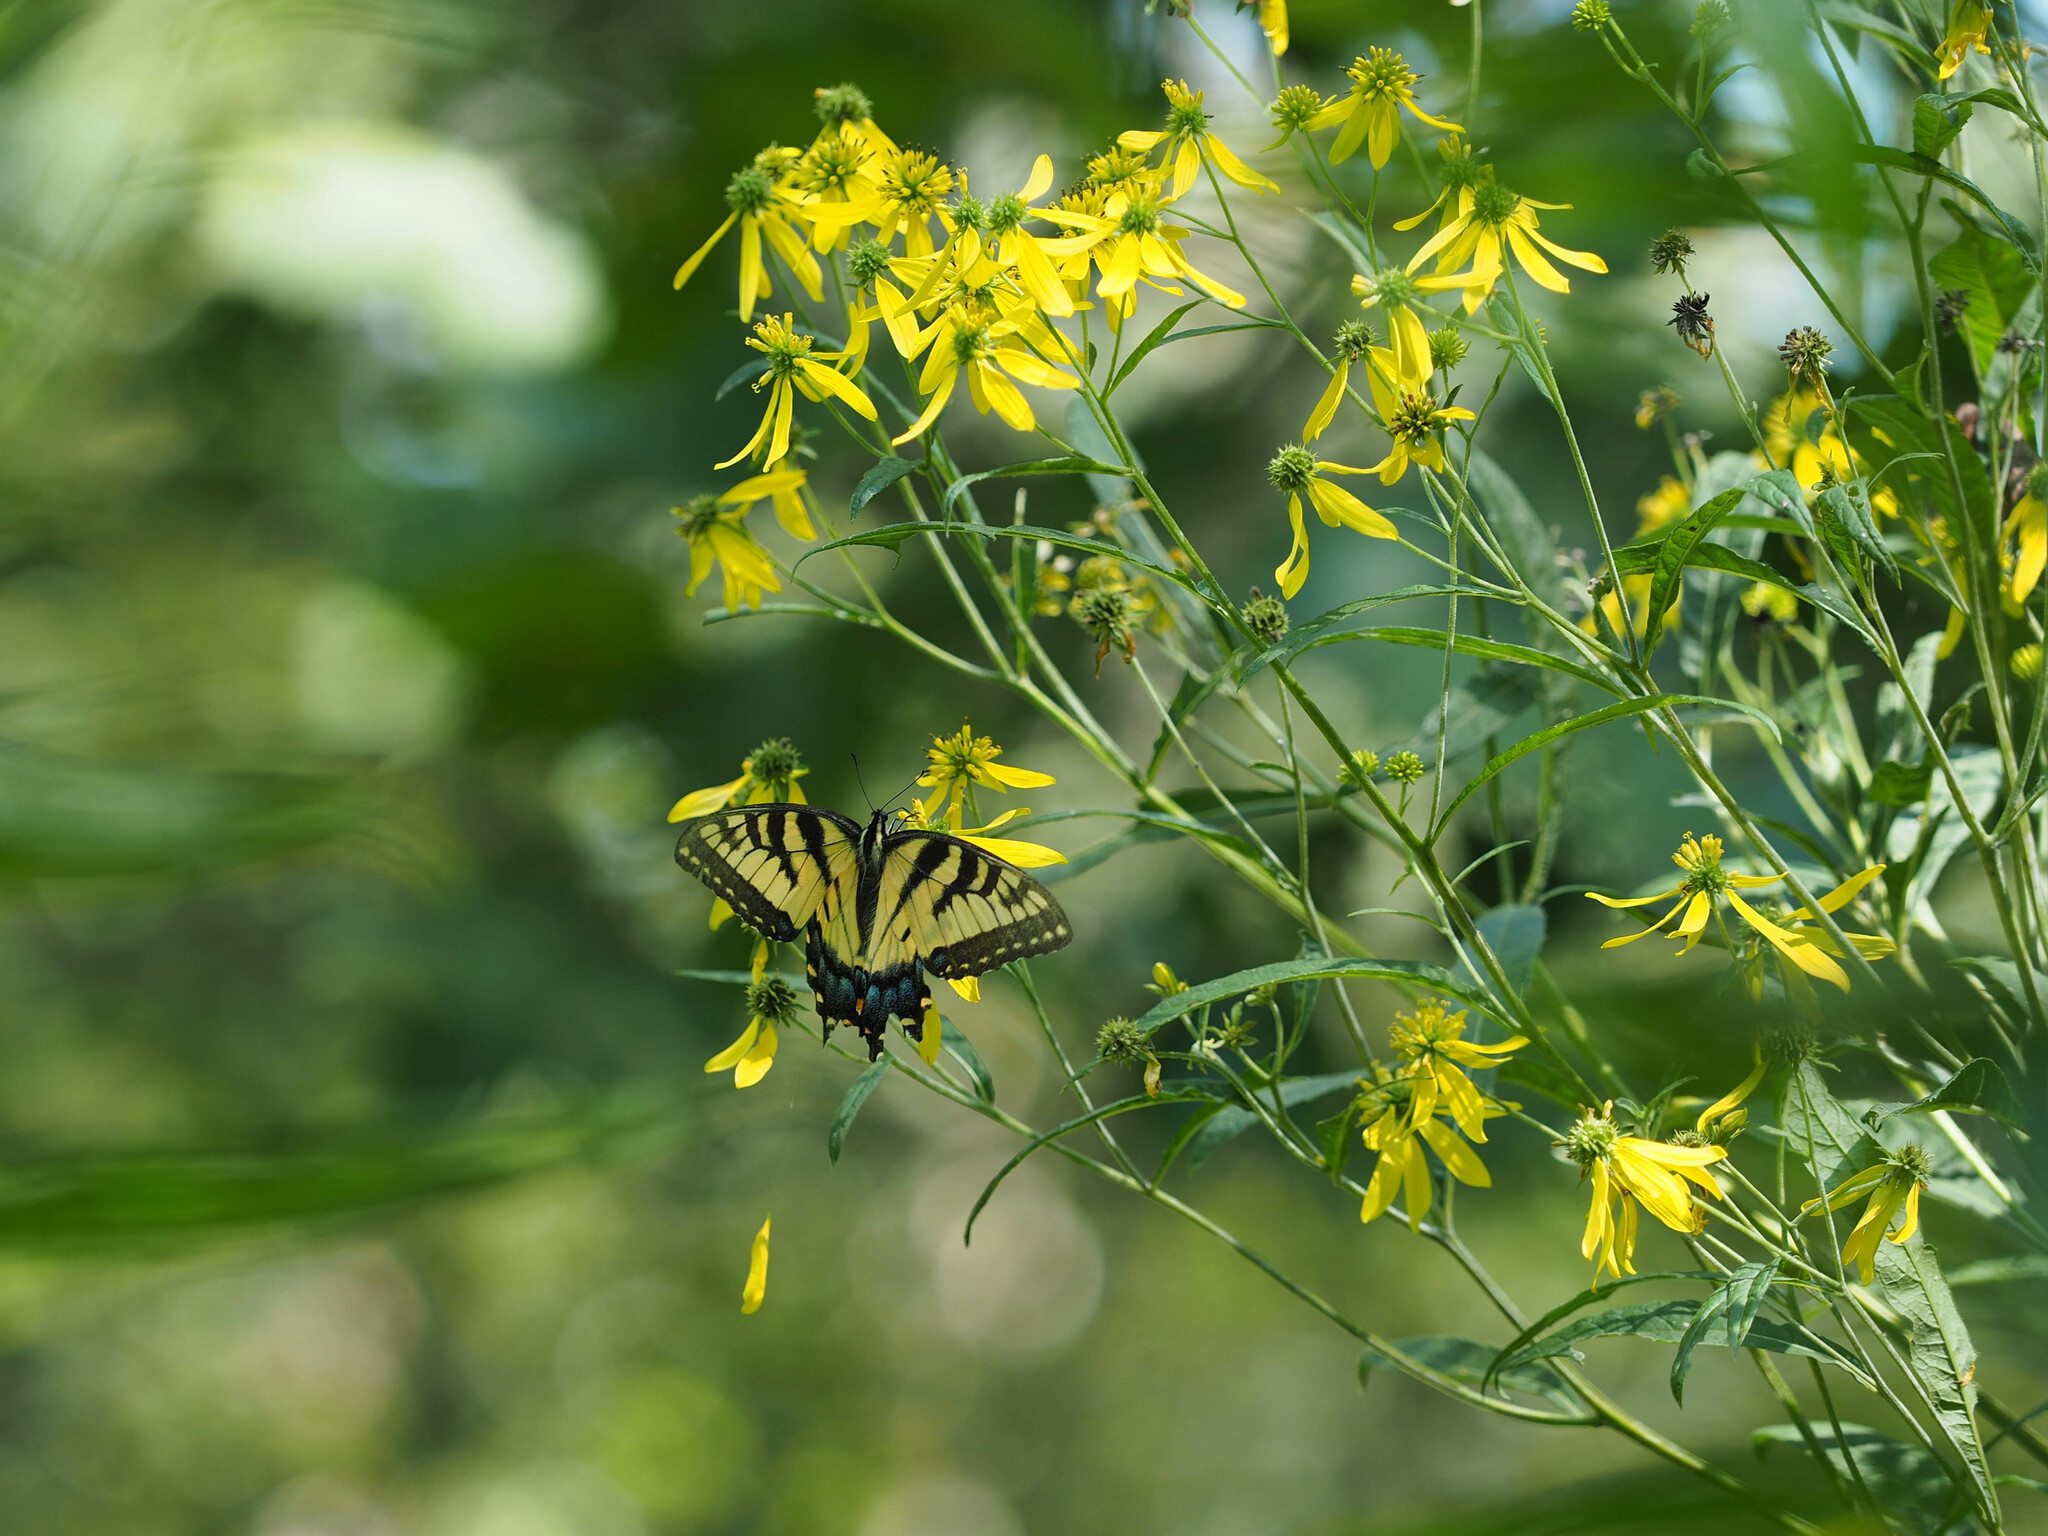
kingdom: Animalia
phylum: Arthropoda
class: Insecta
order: Lepidoptera
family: Papilionidae
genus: Papilio
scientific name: Papilio glaucus
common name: Tiger swallowtail
